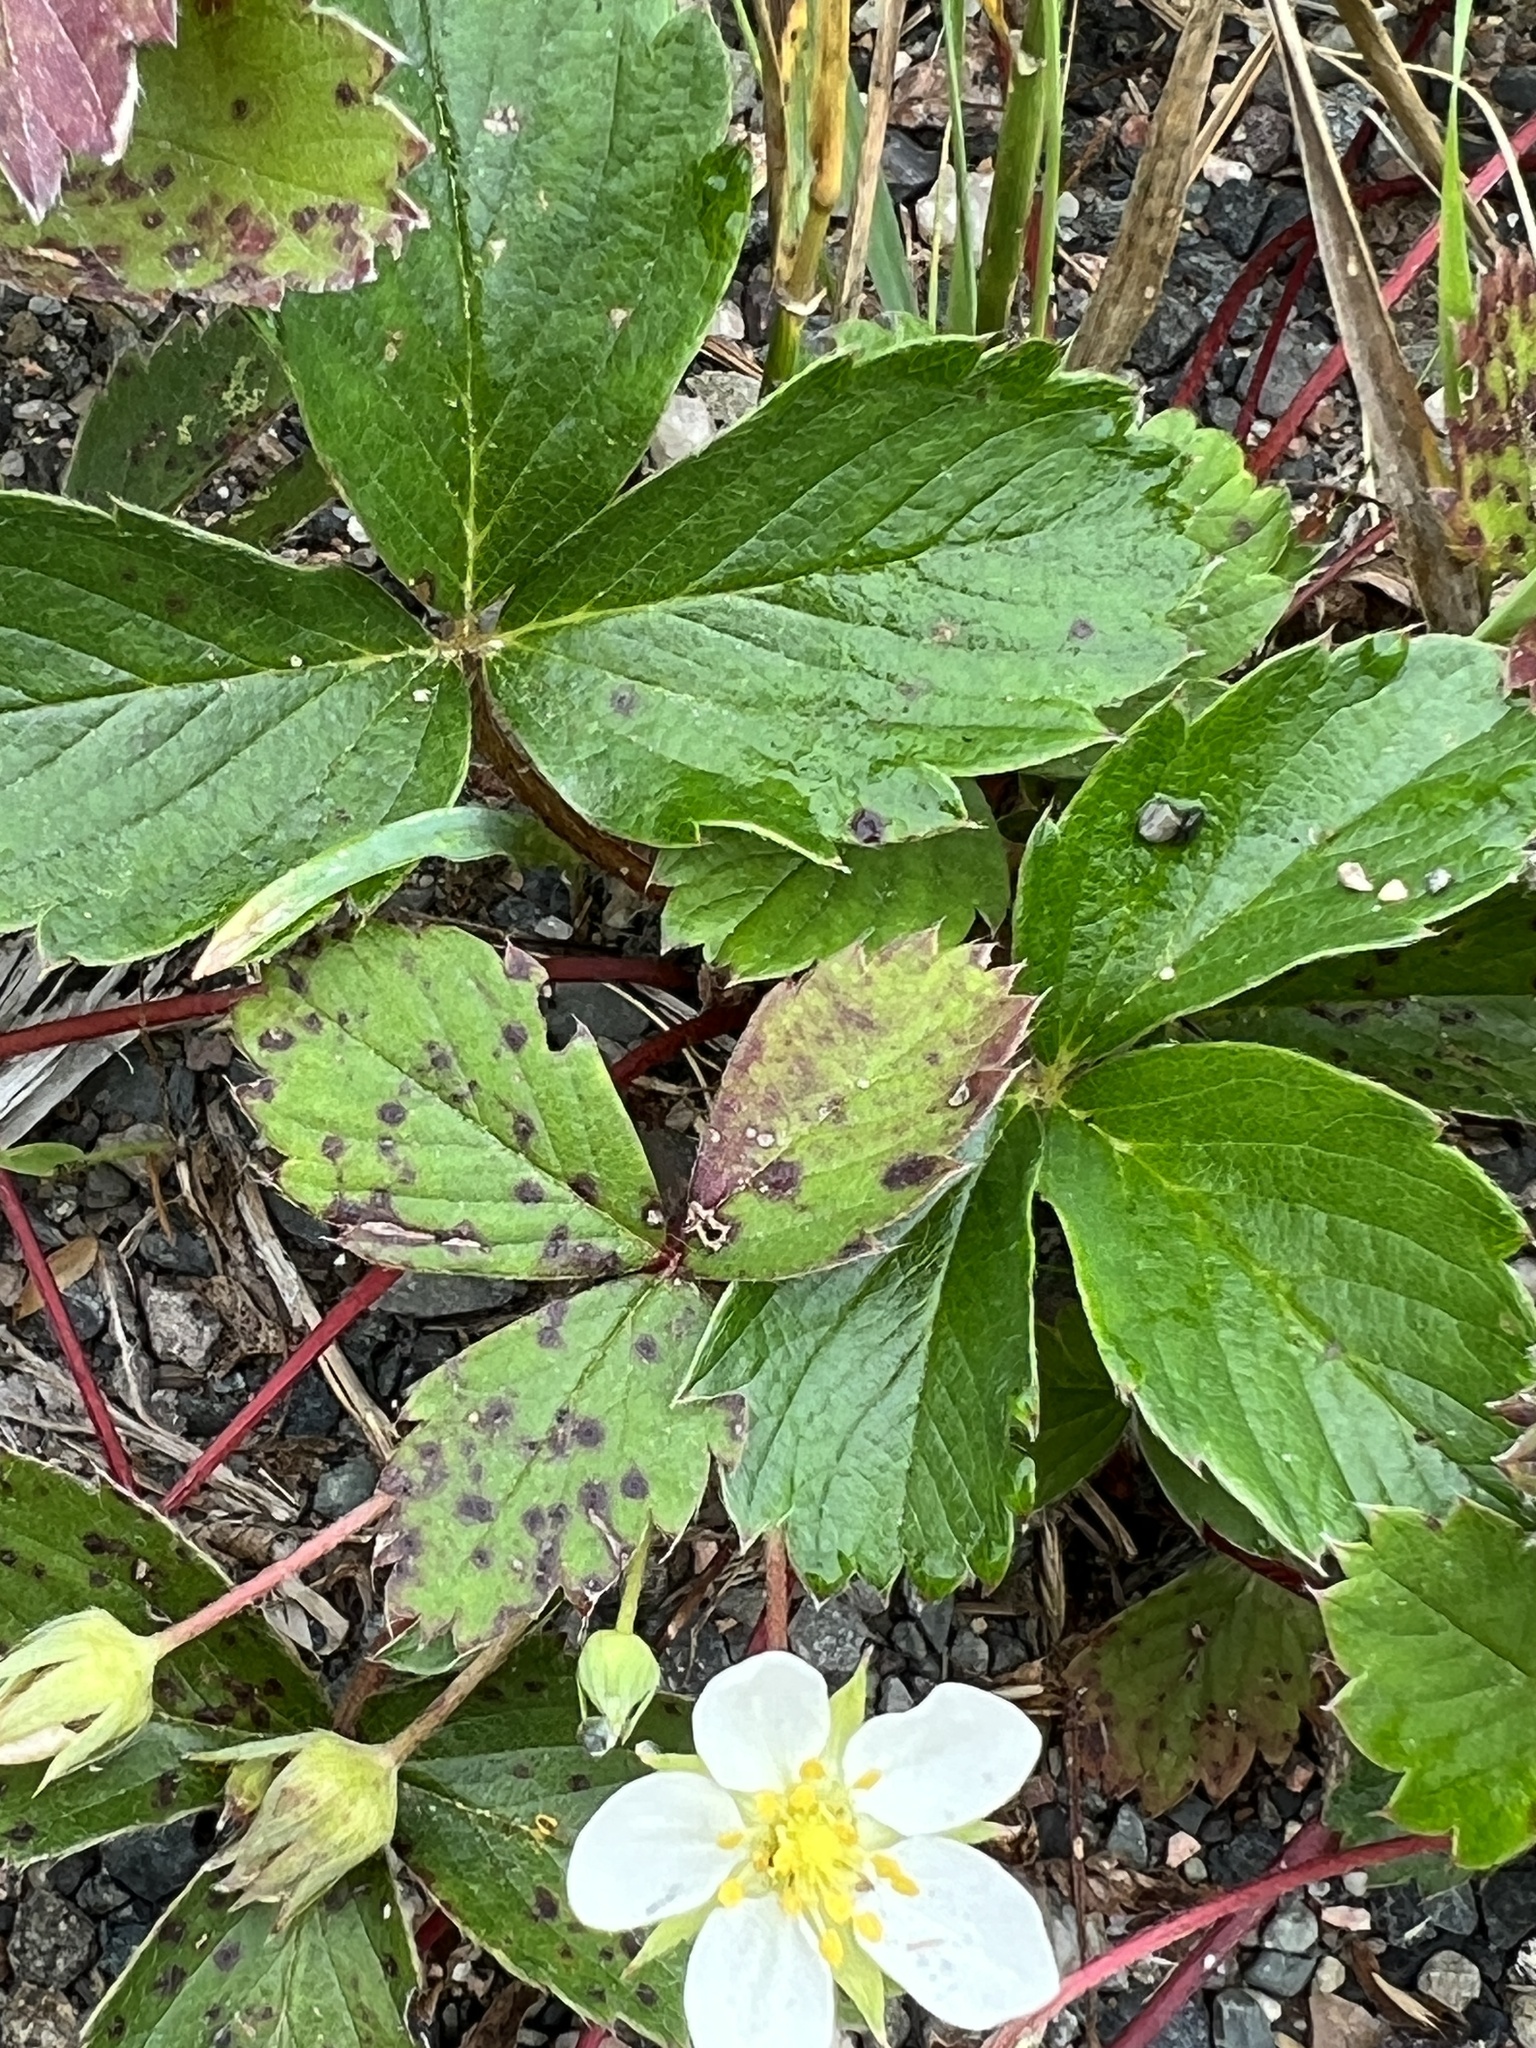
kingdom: Plantae
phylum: Tracheophyta
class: Magnoliopsida
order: Rosales
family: Rosaceae
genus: Fragaria
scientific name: Fragaria virginiana
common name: Thickleaved wild strawberry
